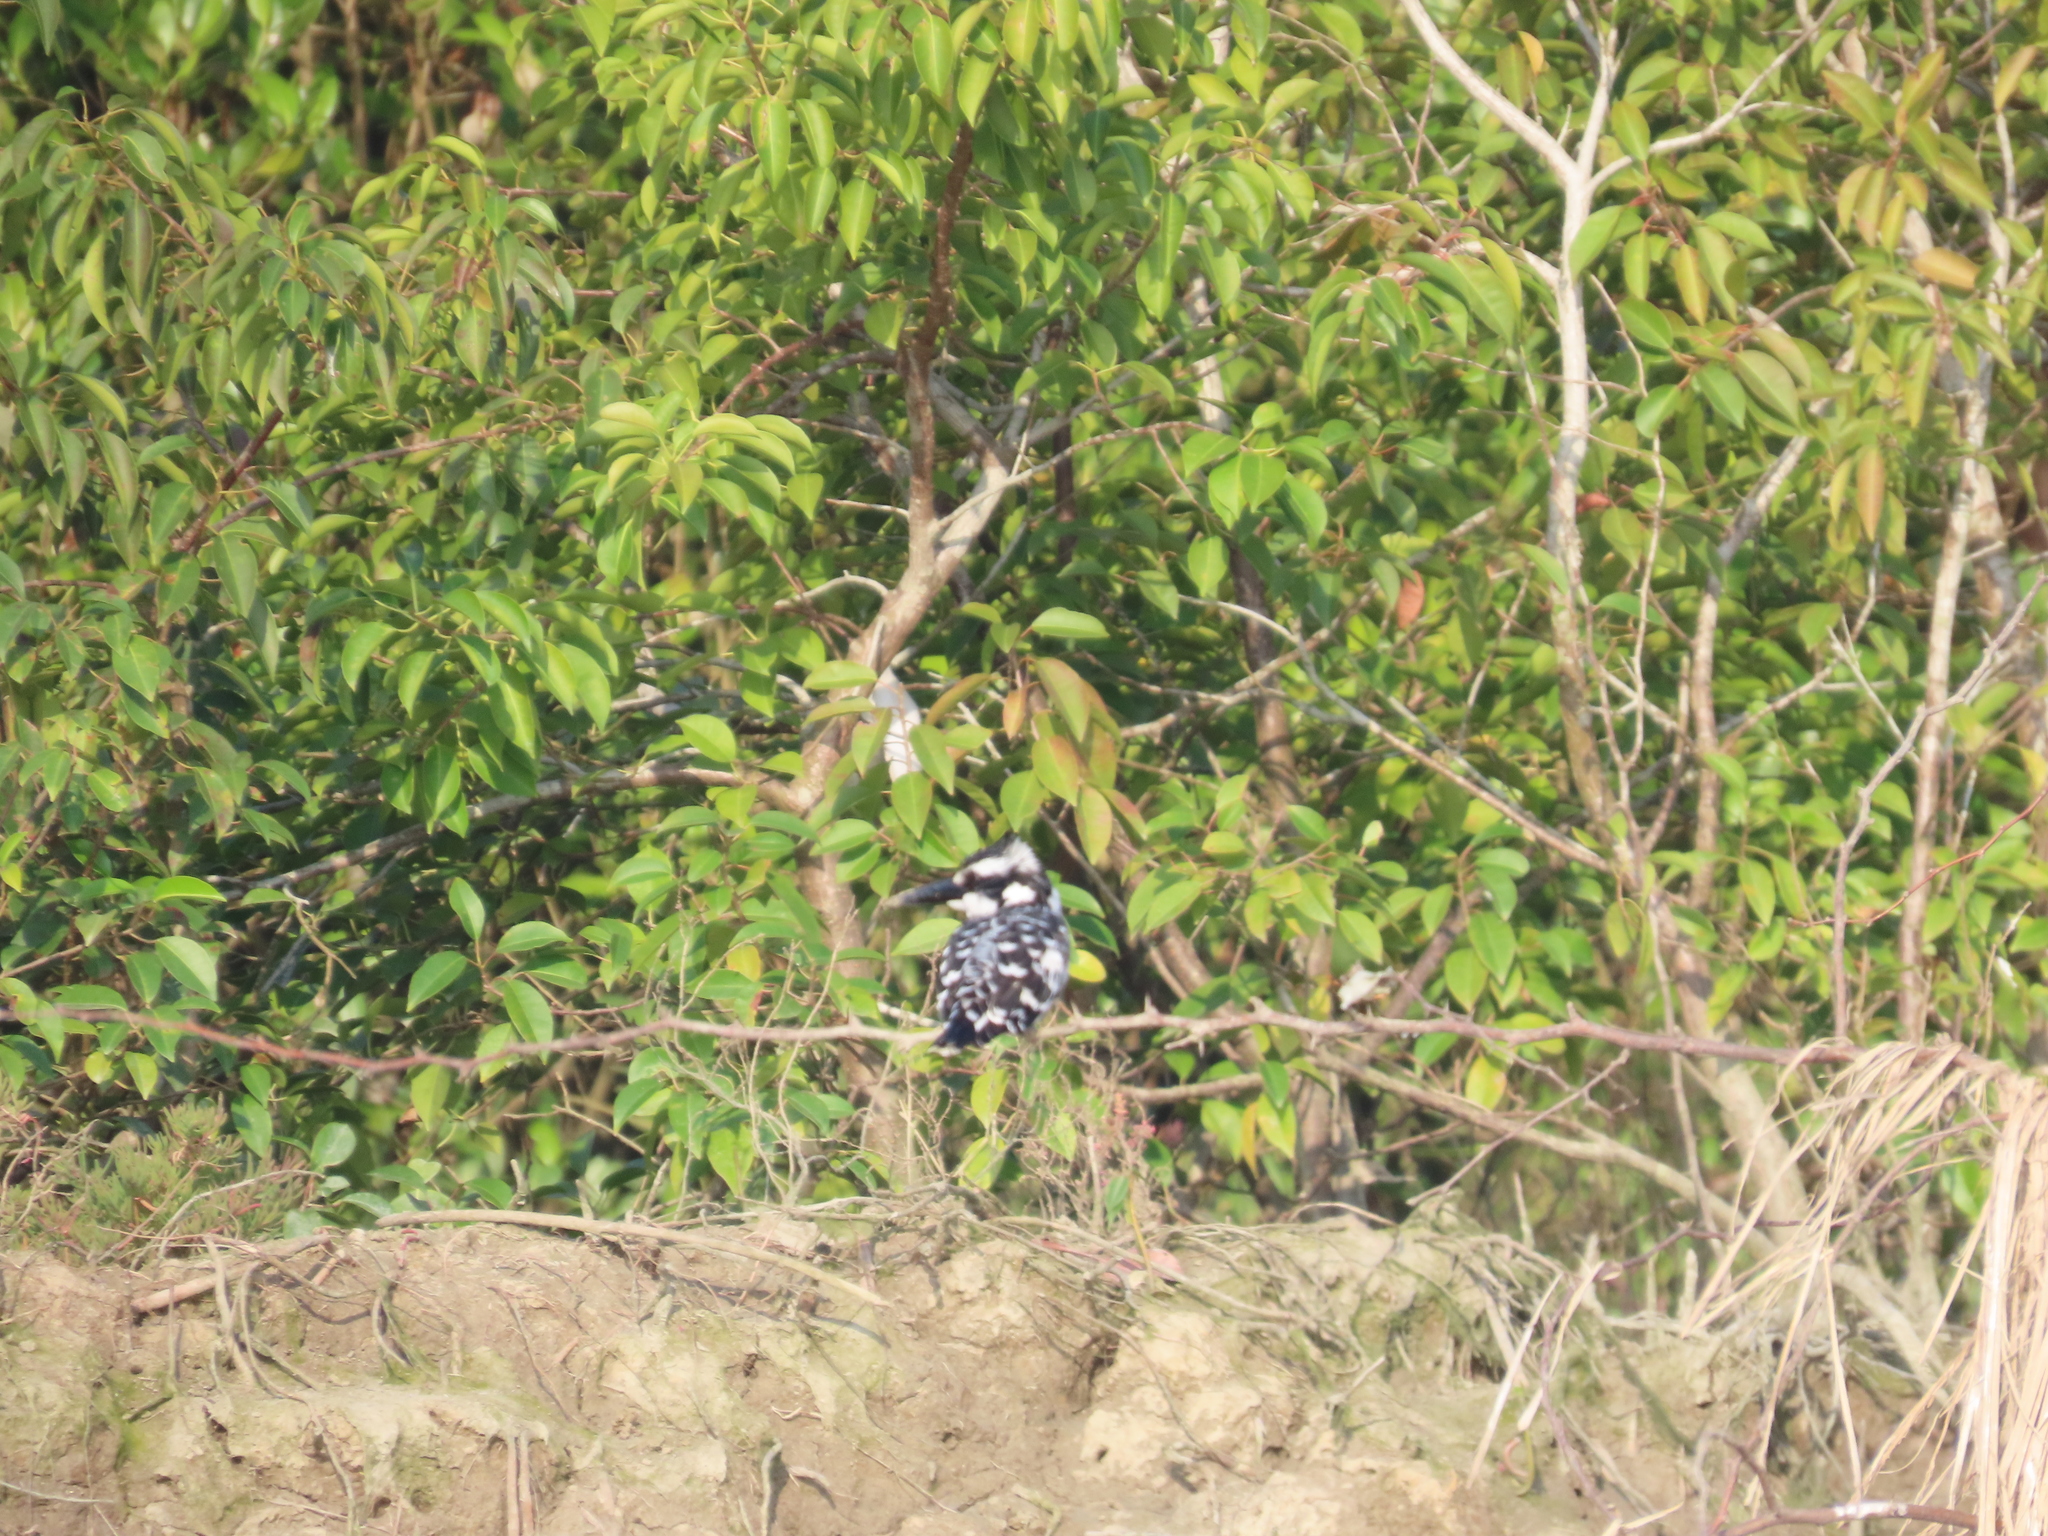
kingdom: Animalia
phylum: Chordata
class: Aves
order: Coraciiformes
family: Alcedinidae
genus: Ceryle
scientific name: Ceryle rudis
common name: Pied kingfisher
